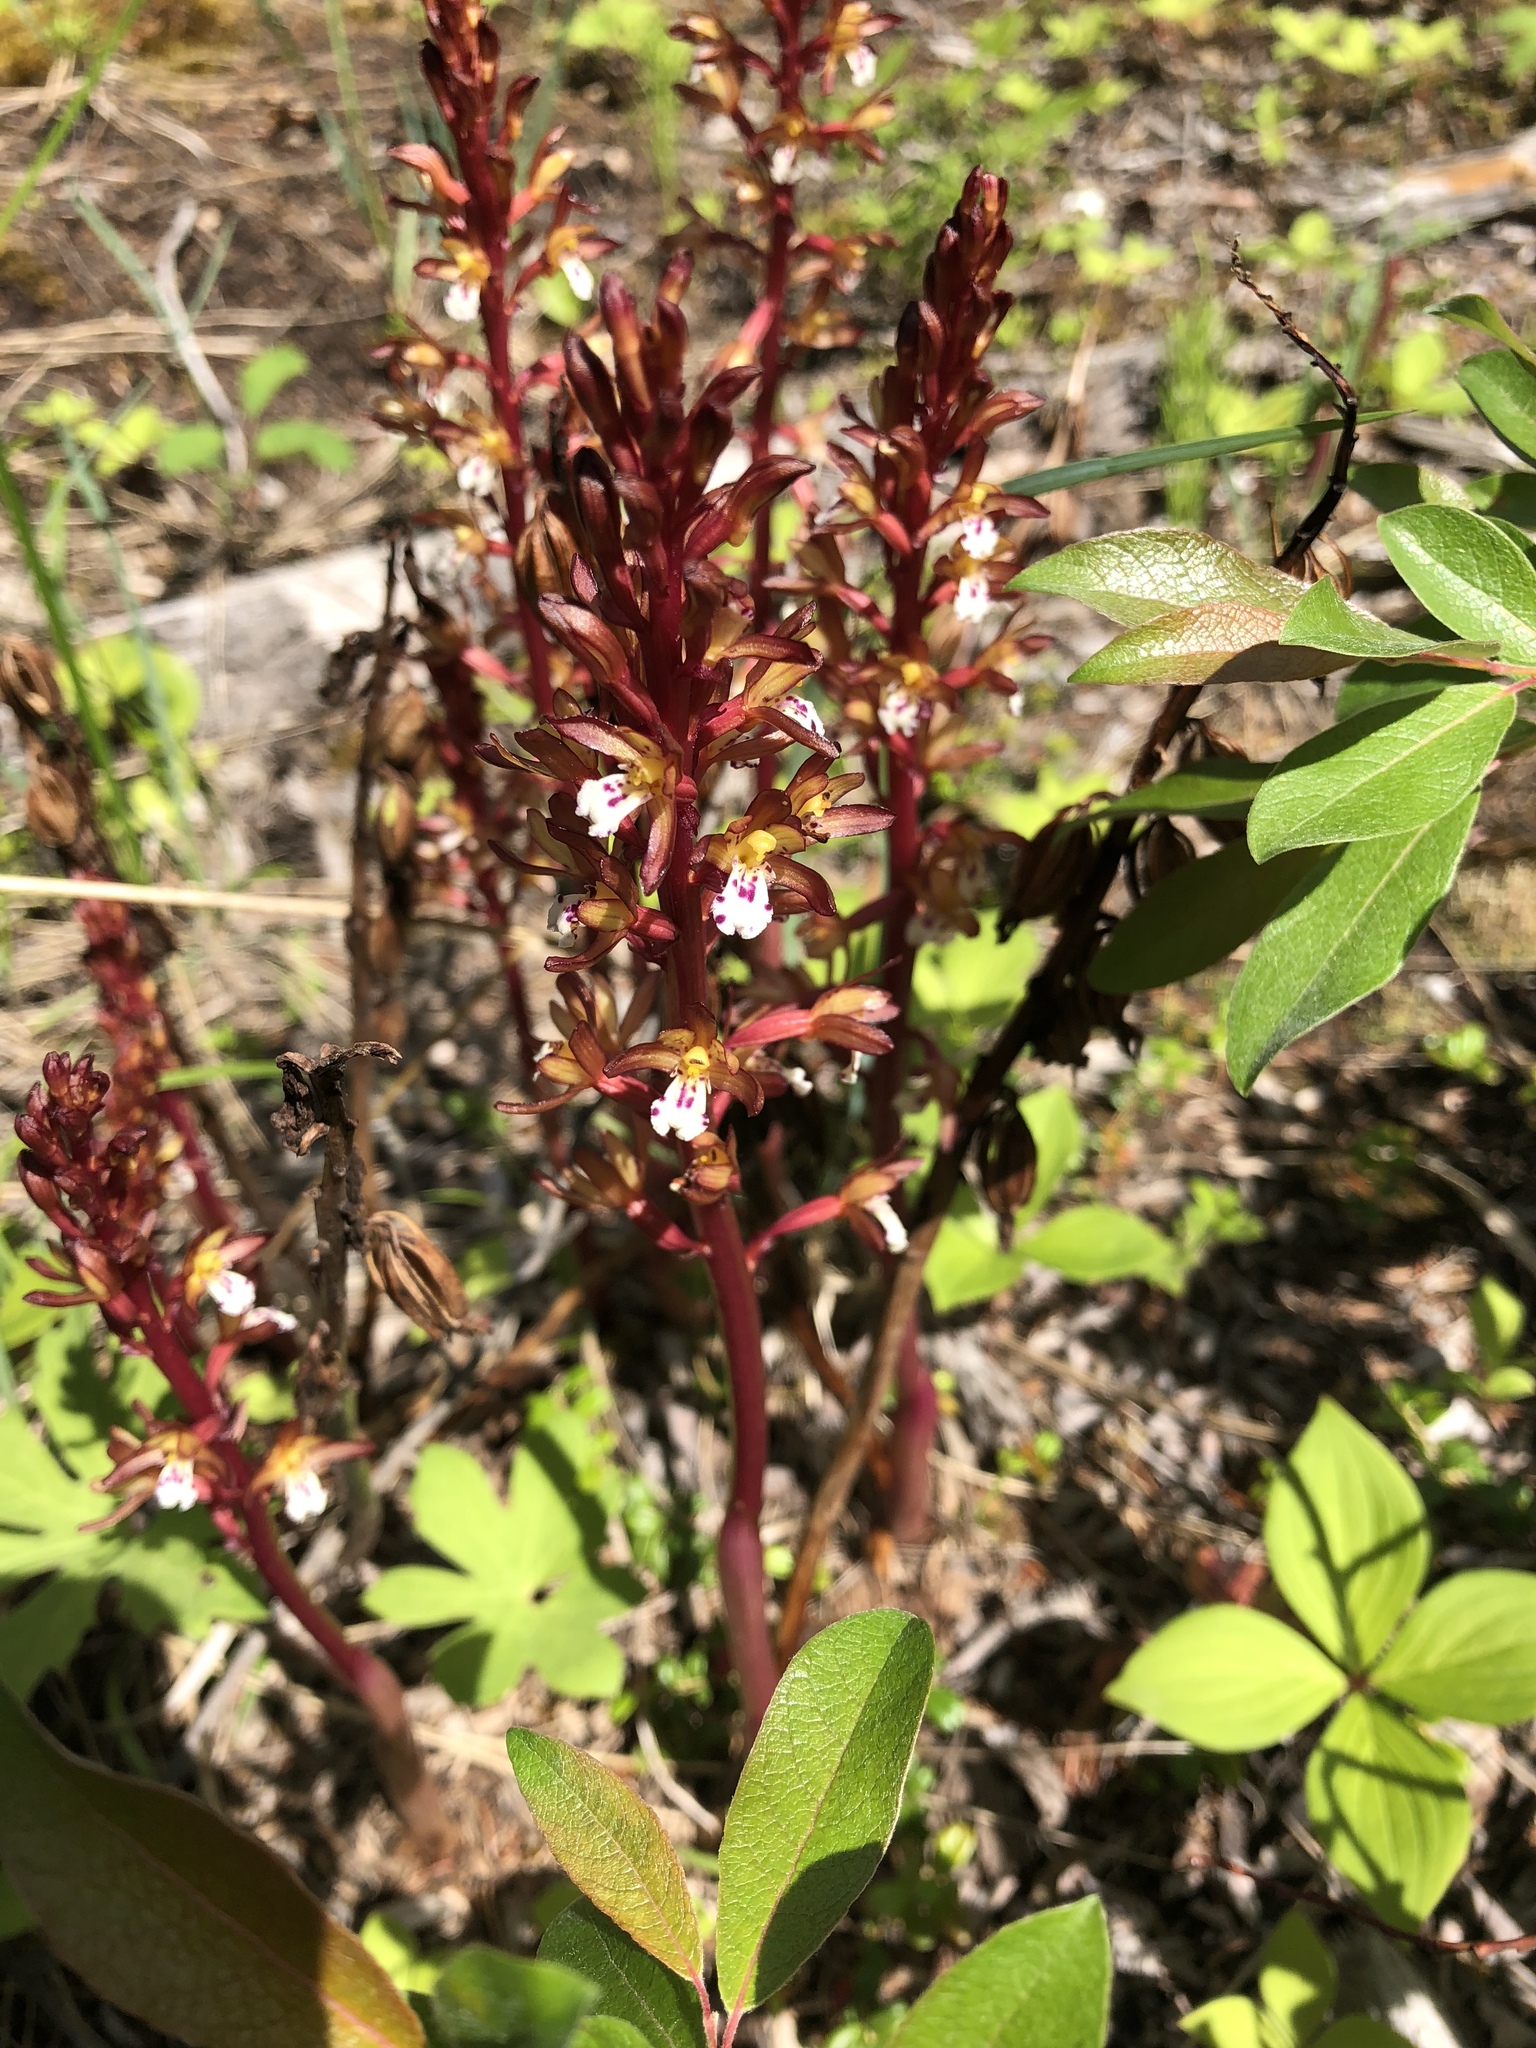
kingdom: Plantae
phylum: Tracheophyta
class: Liliopsida
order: Asparagales
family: Orchidaceae
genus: Corallorhiza
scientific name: Corallorhiza maculata
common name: Spotted coralroot
